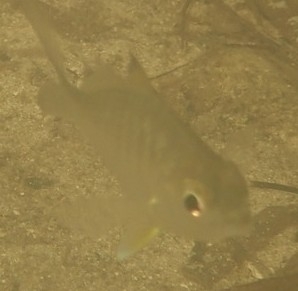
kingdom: Animalia
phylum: Chordata
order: Perciformes
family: Gerreidae
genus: Gerres
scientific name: Gerres cinereus
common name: Hedow
